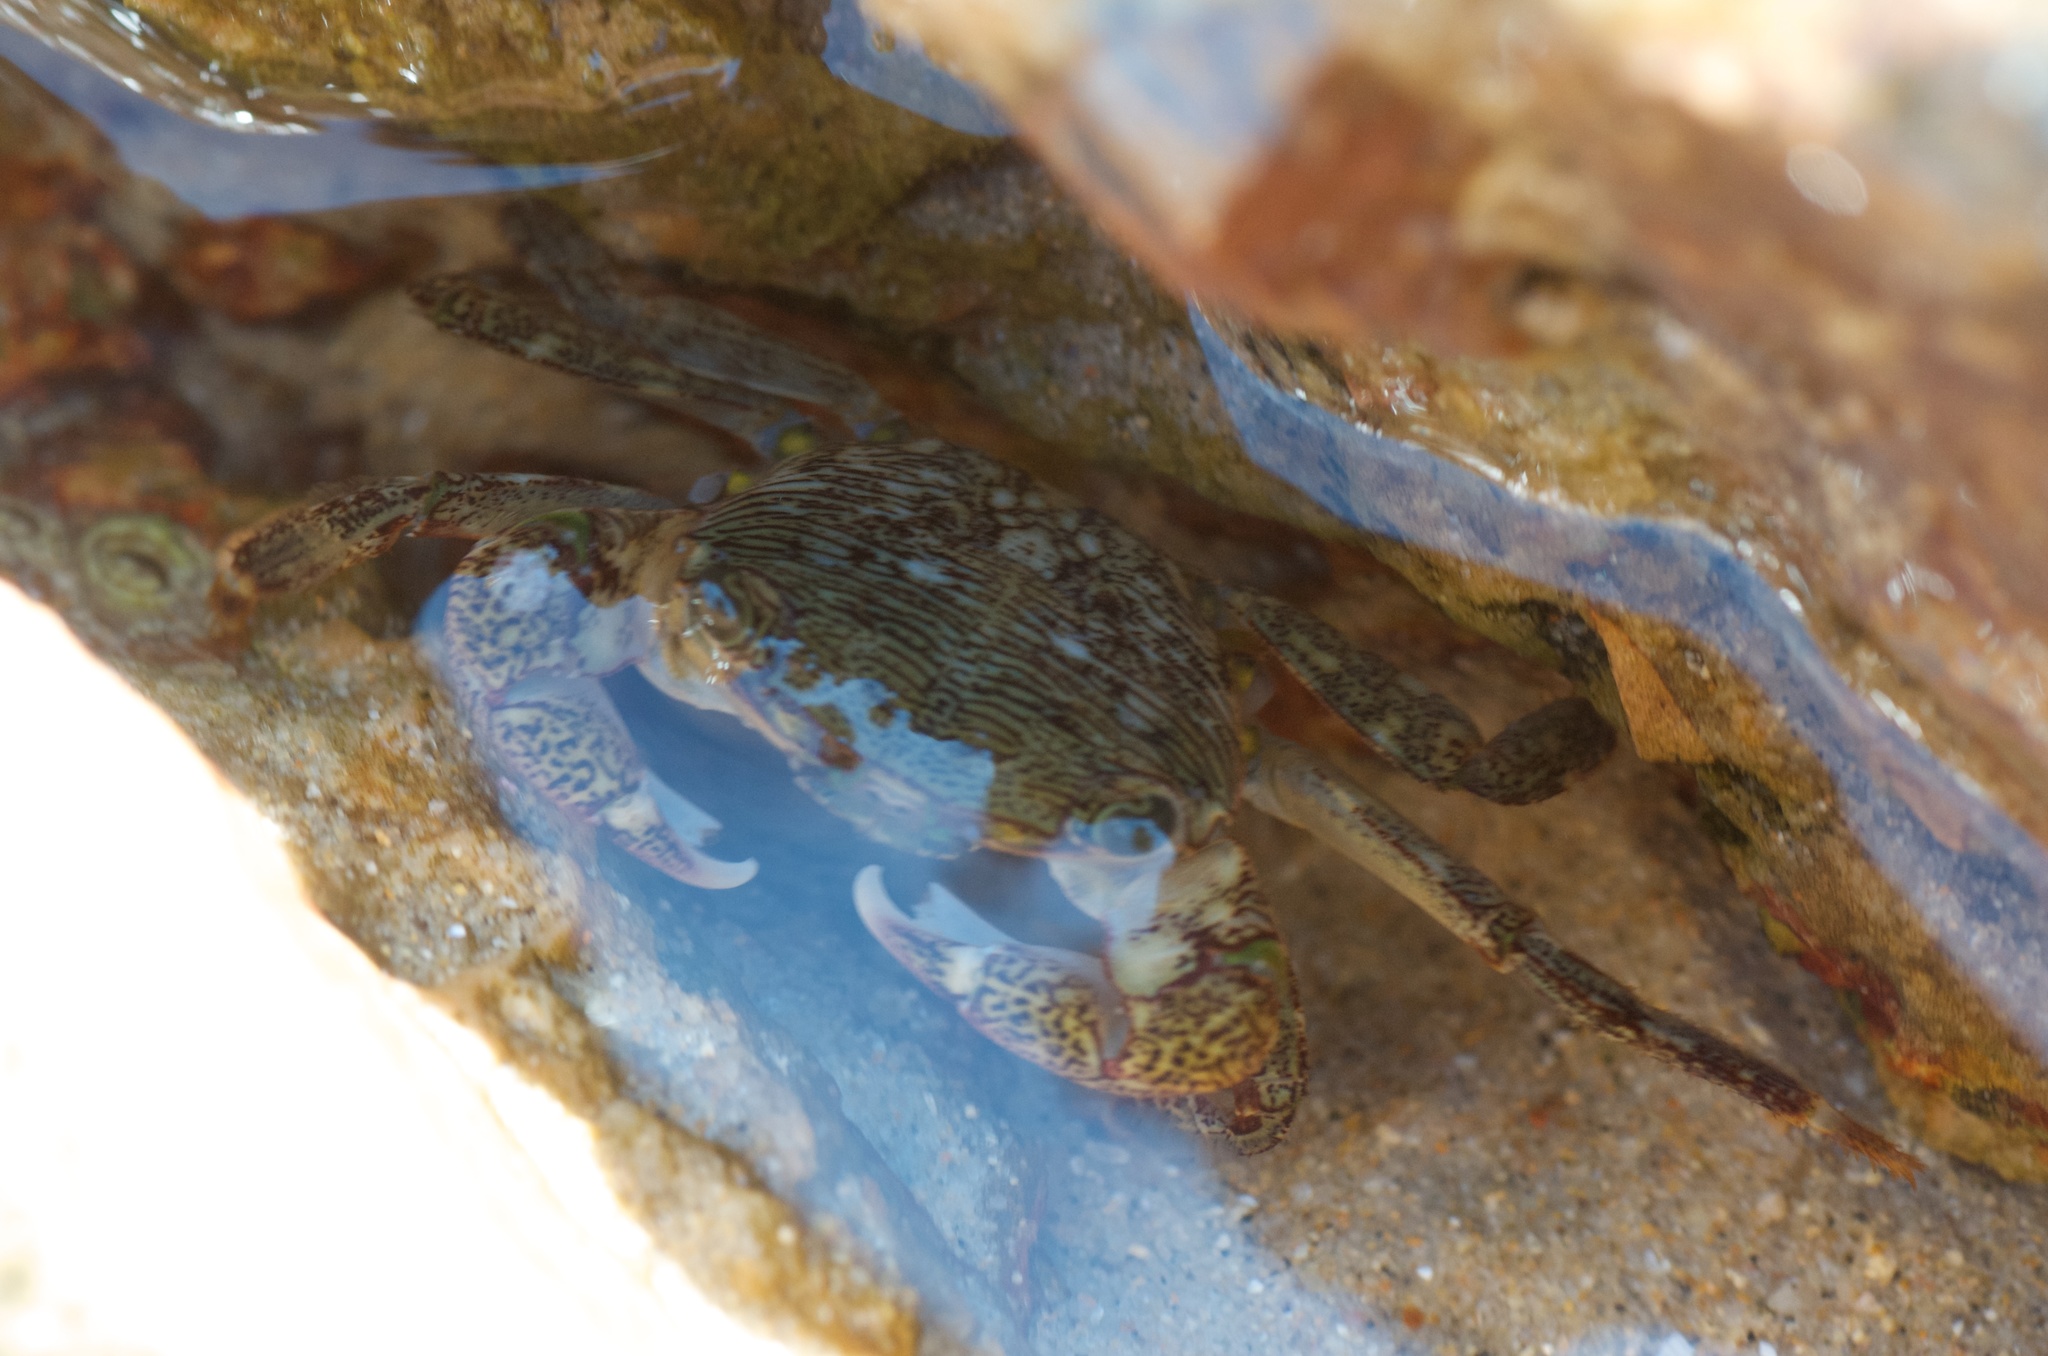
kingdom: Animalia
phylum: Arthropoda
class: Malacostraca
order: Decapoda
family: Grapsidae
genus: Pachygrapsus
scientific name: Pachygrapsus crassipes
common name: Striped shore crab
